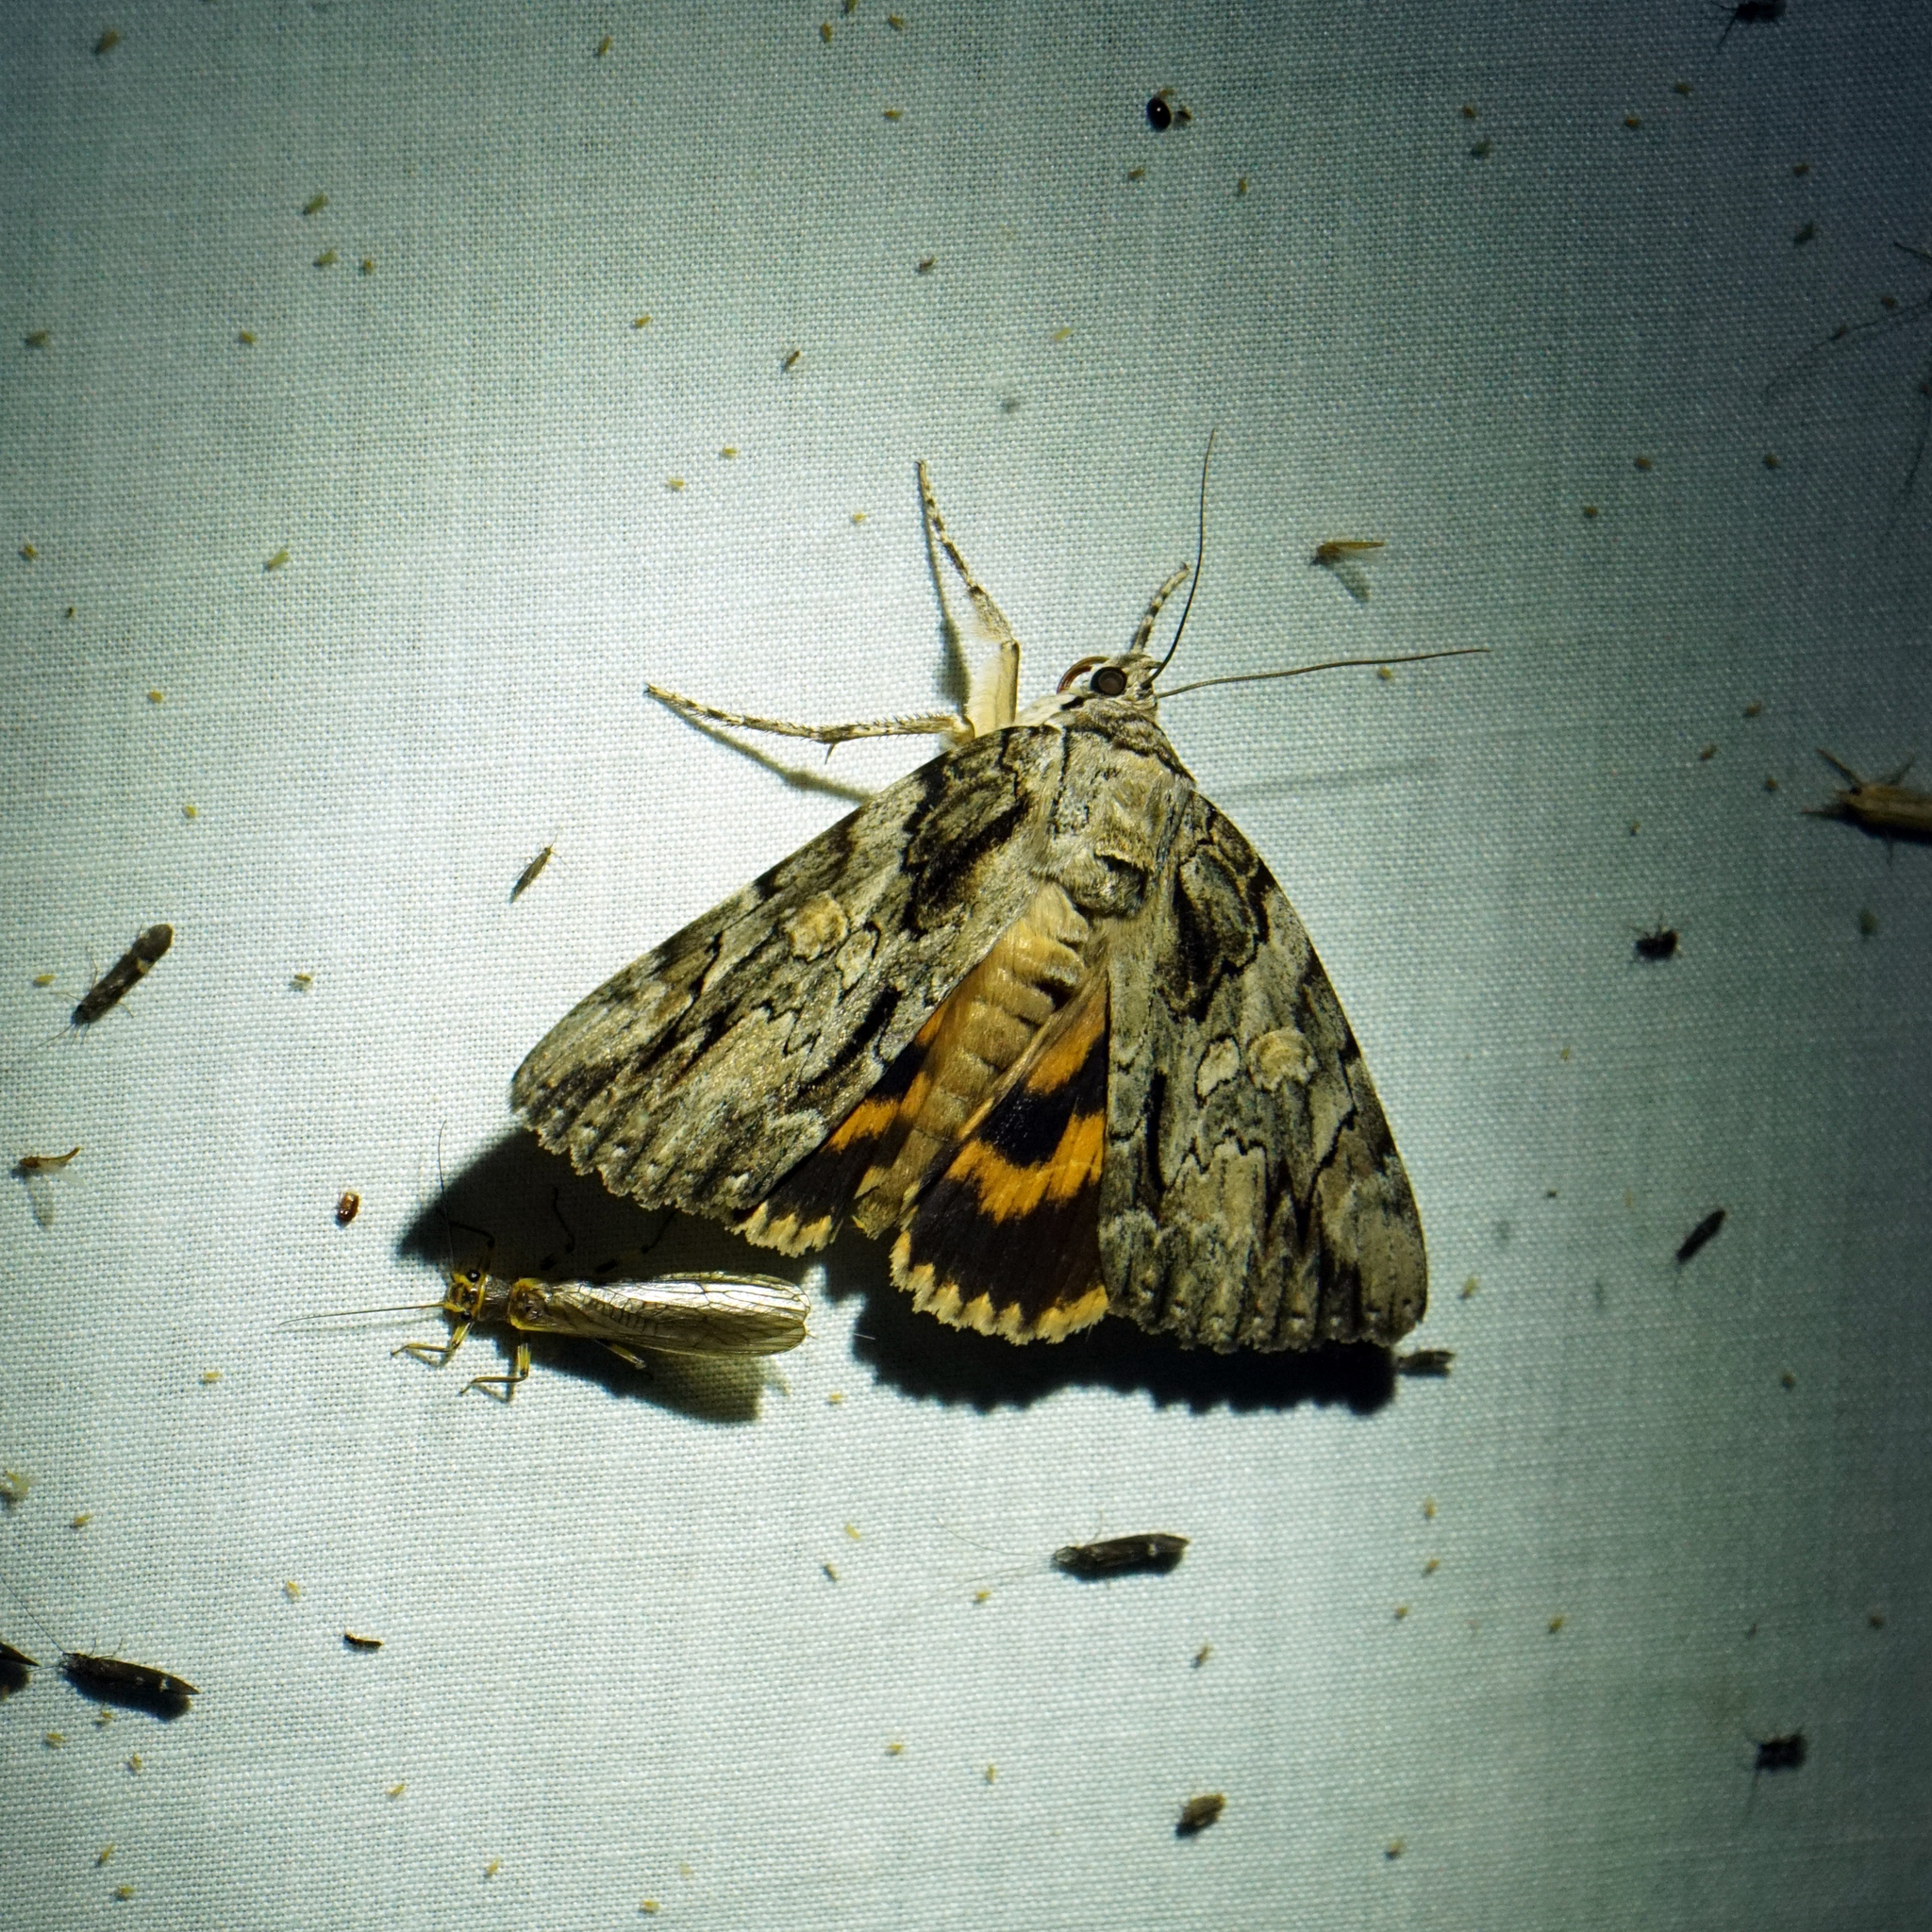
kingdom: Animalia
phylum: Arthropoda
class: Insecta
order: Lepidoptera
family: Erebidae
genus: Catocala
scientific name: Catocala neogama
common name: Bride underwing
